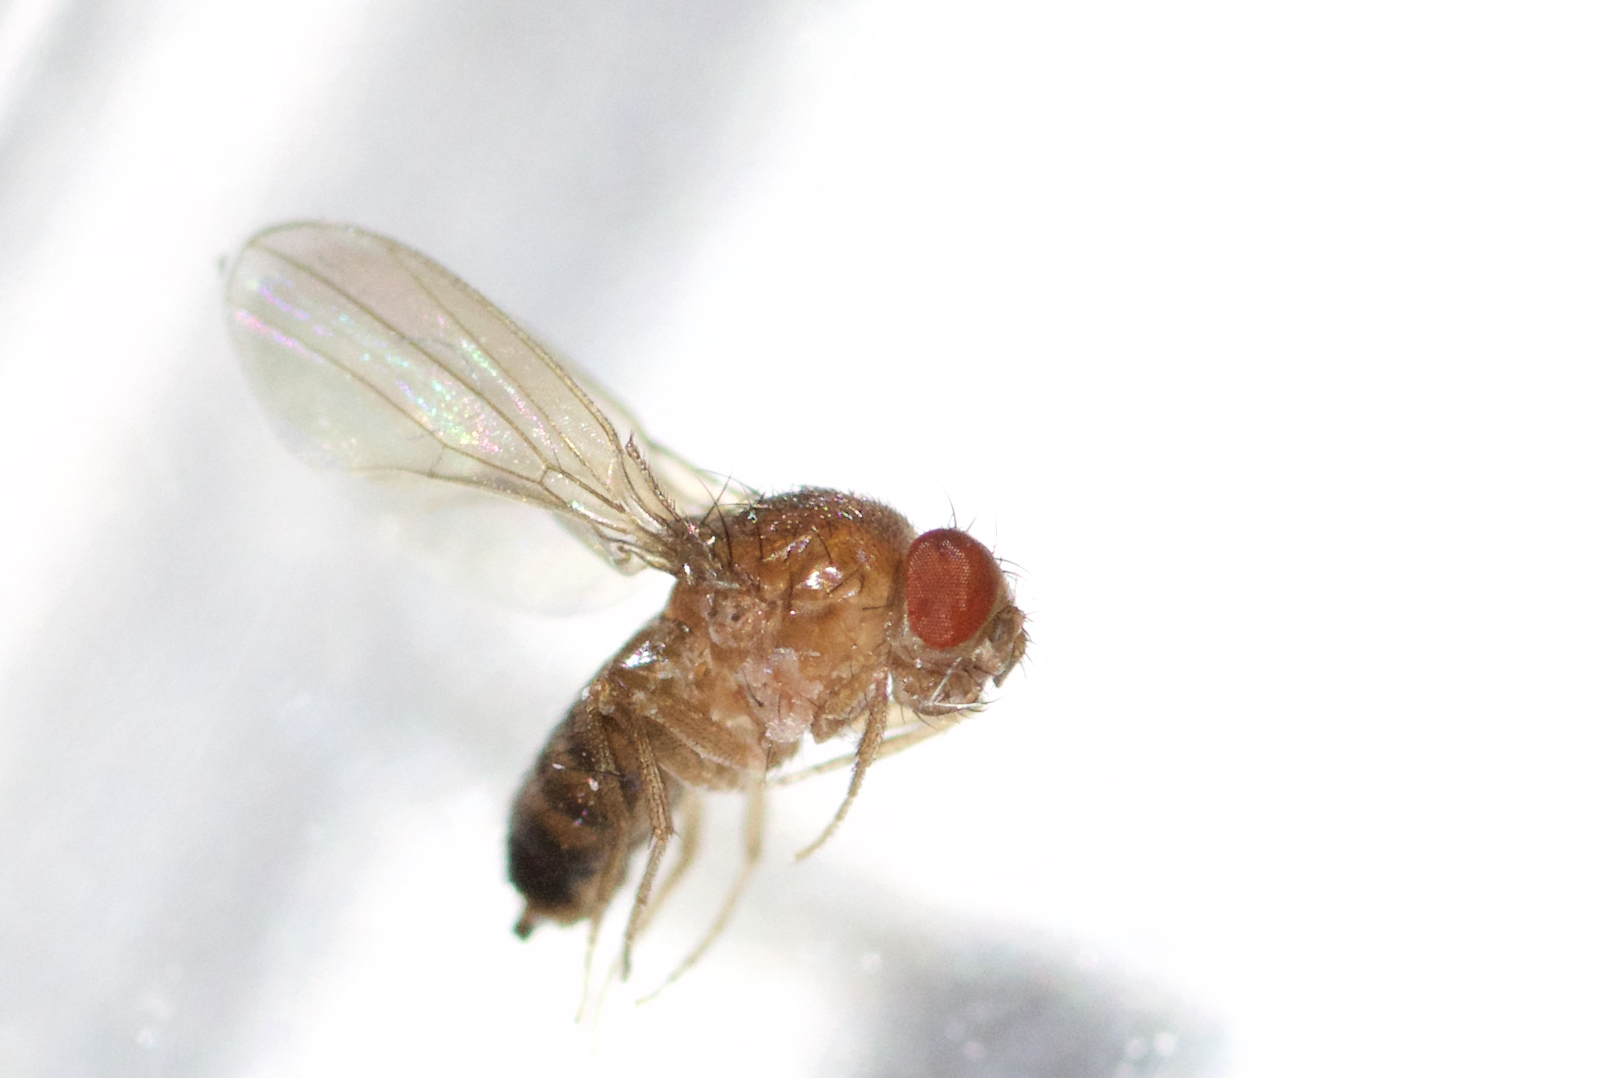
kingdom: Animalia
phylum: Arthropoda
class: Insecta
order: Diptera
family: Drosophilidae
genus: Drosophila
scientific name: Drosophila melanogaster
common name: Pomace fly
